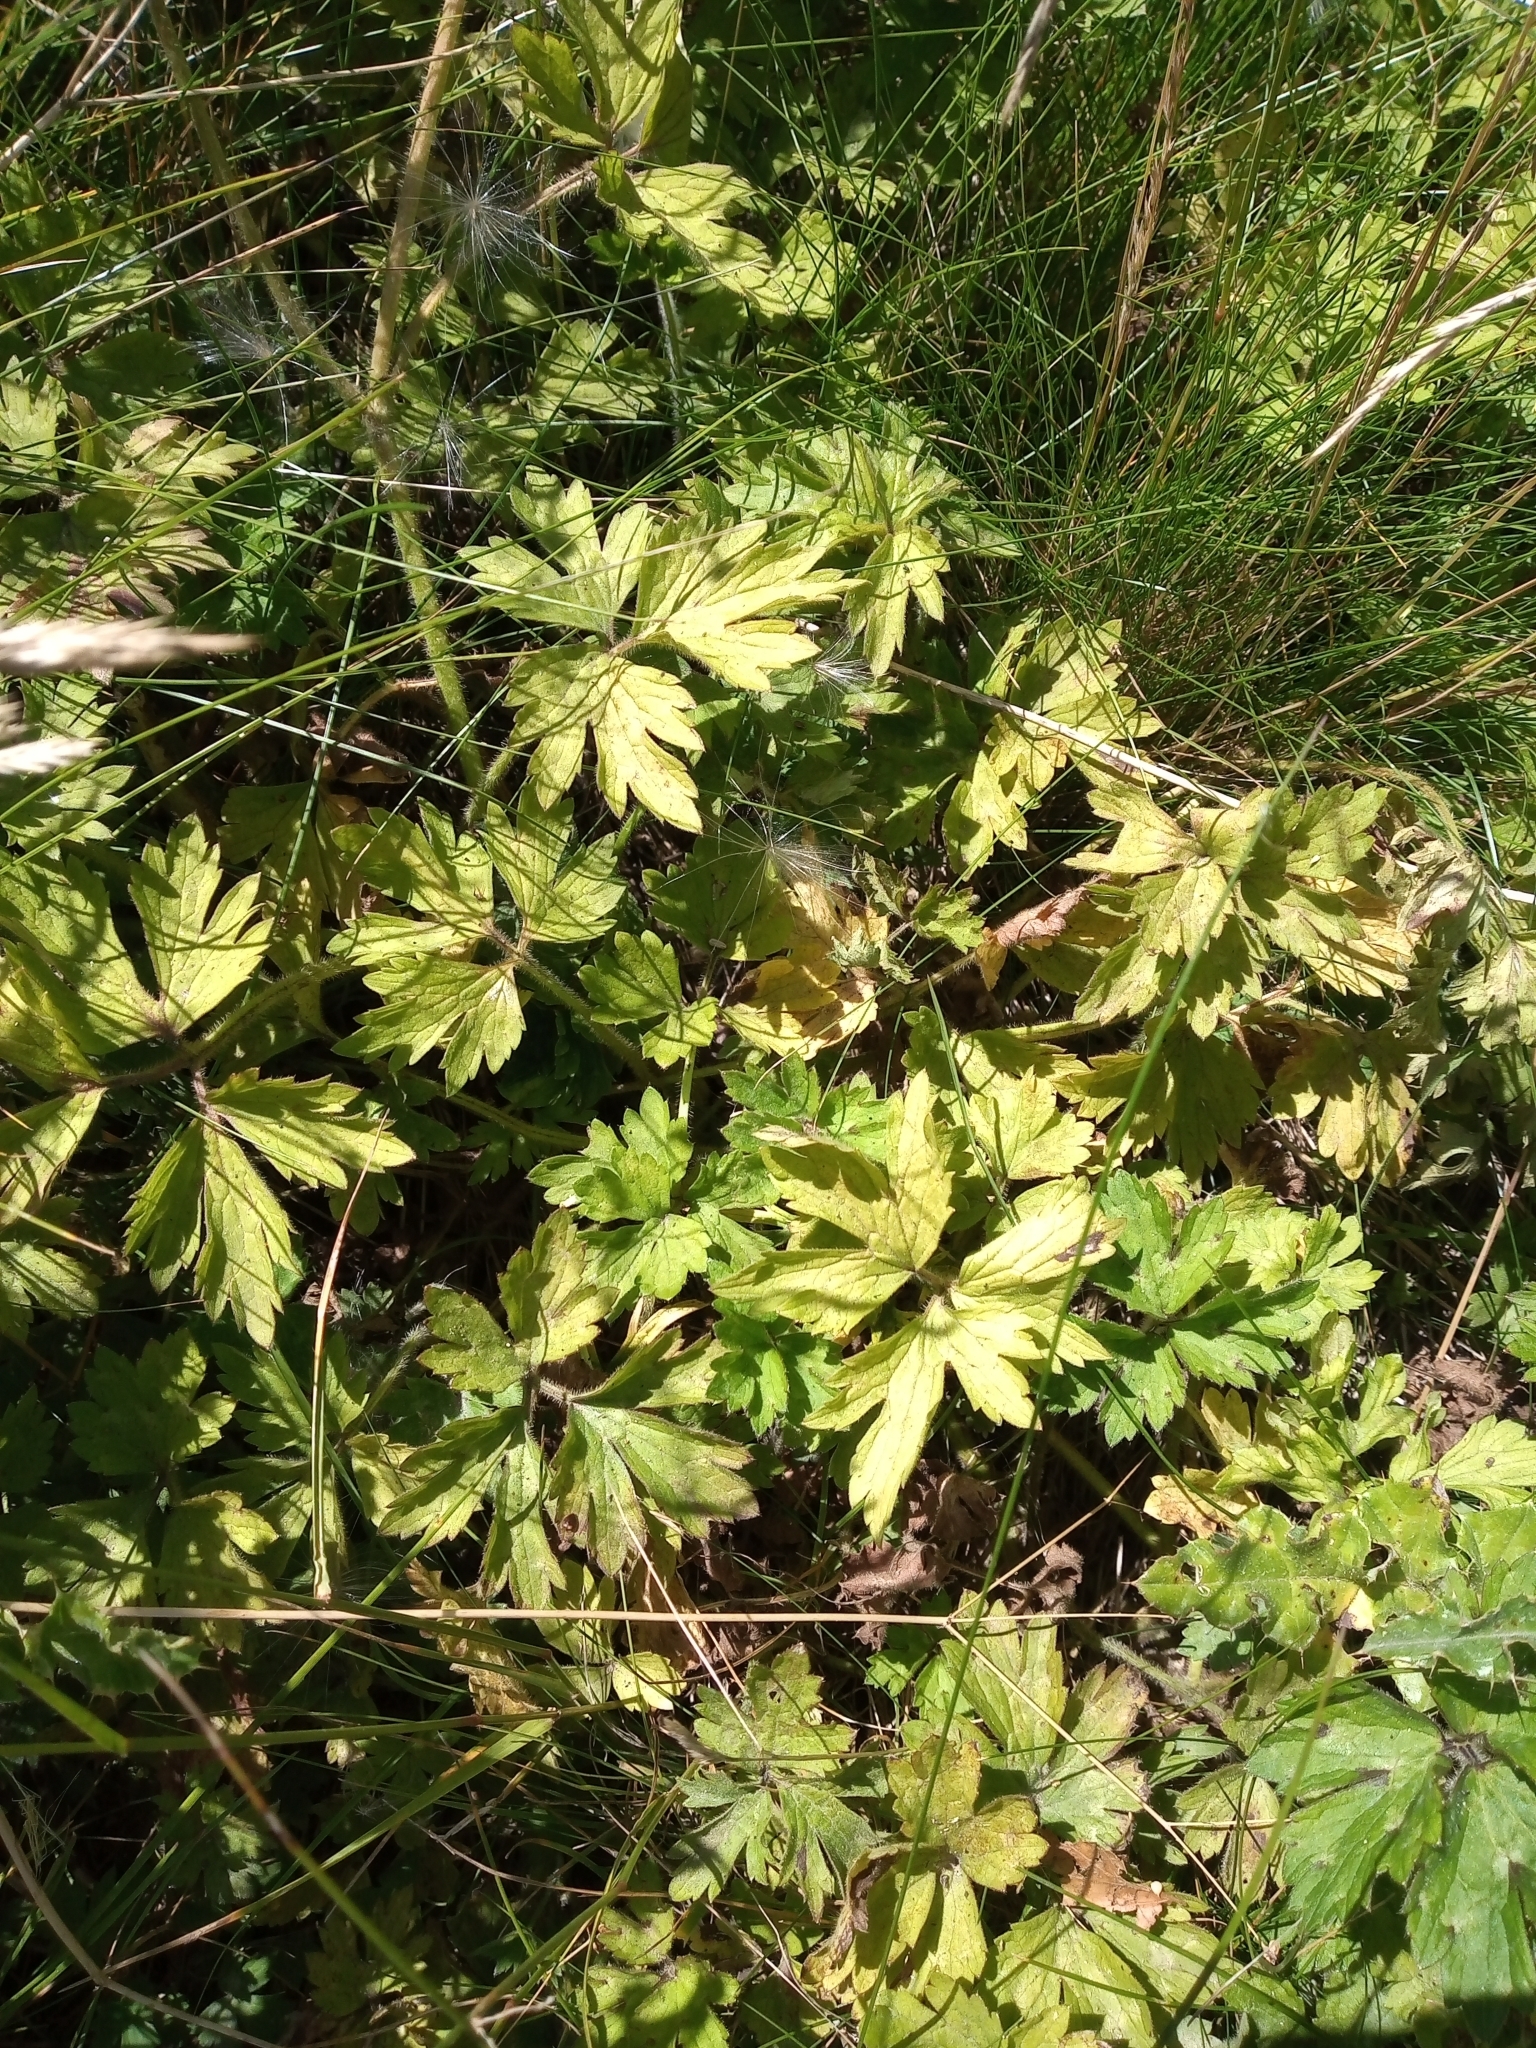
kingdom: Plantae
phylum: Tracheophyta
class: Magnoliopsida
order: Ranunculales
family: Ranunculaceae
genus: Ranunculus
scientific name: Ranunculus repens
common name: Creeping buttercup
